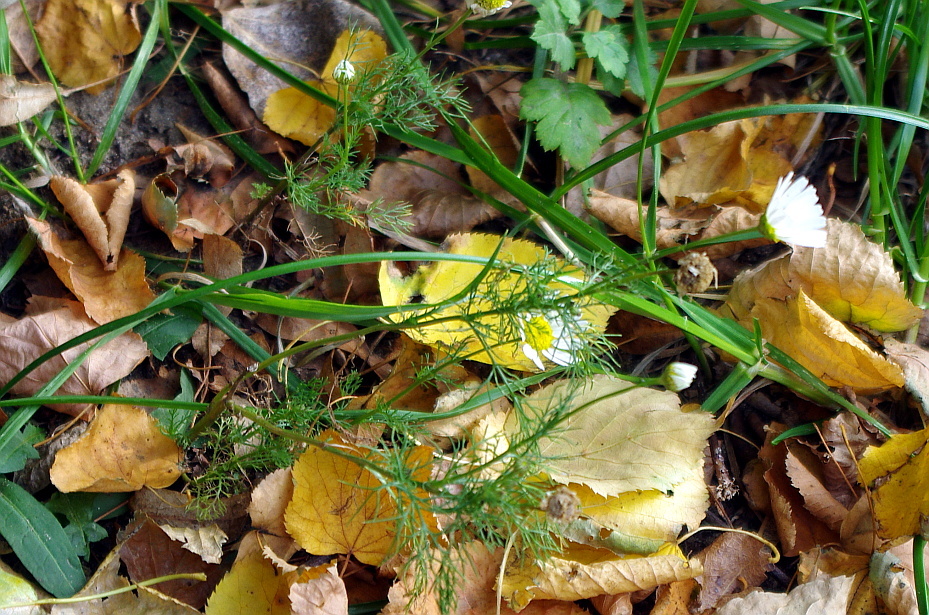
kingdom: Plantae
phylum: Tracheophyta
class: Magnoliopsida
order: Asterales
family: Asteraceae
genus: Tripleurospermum
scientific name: Tripleurospermum inodorum
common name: Scentless mayweed
